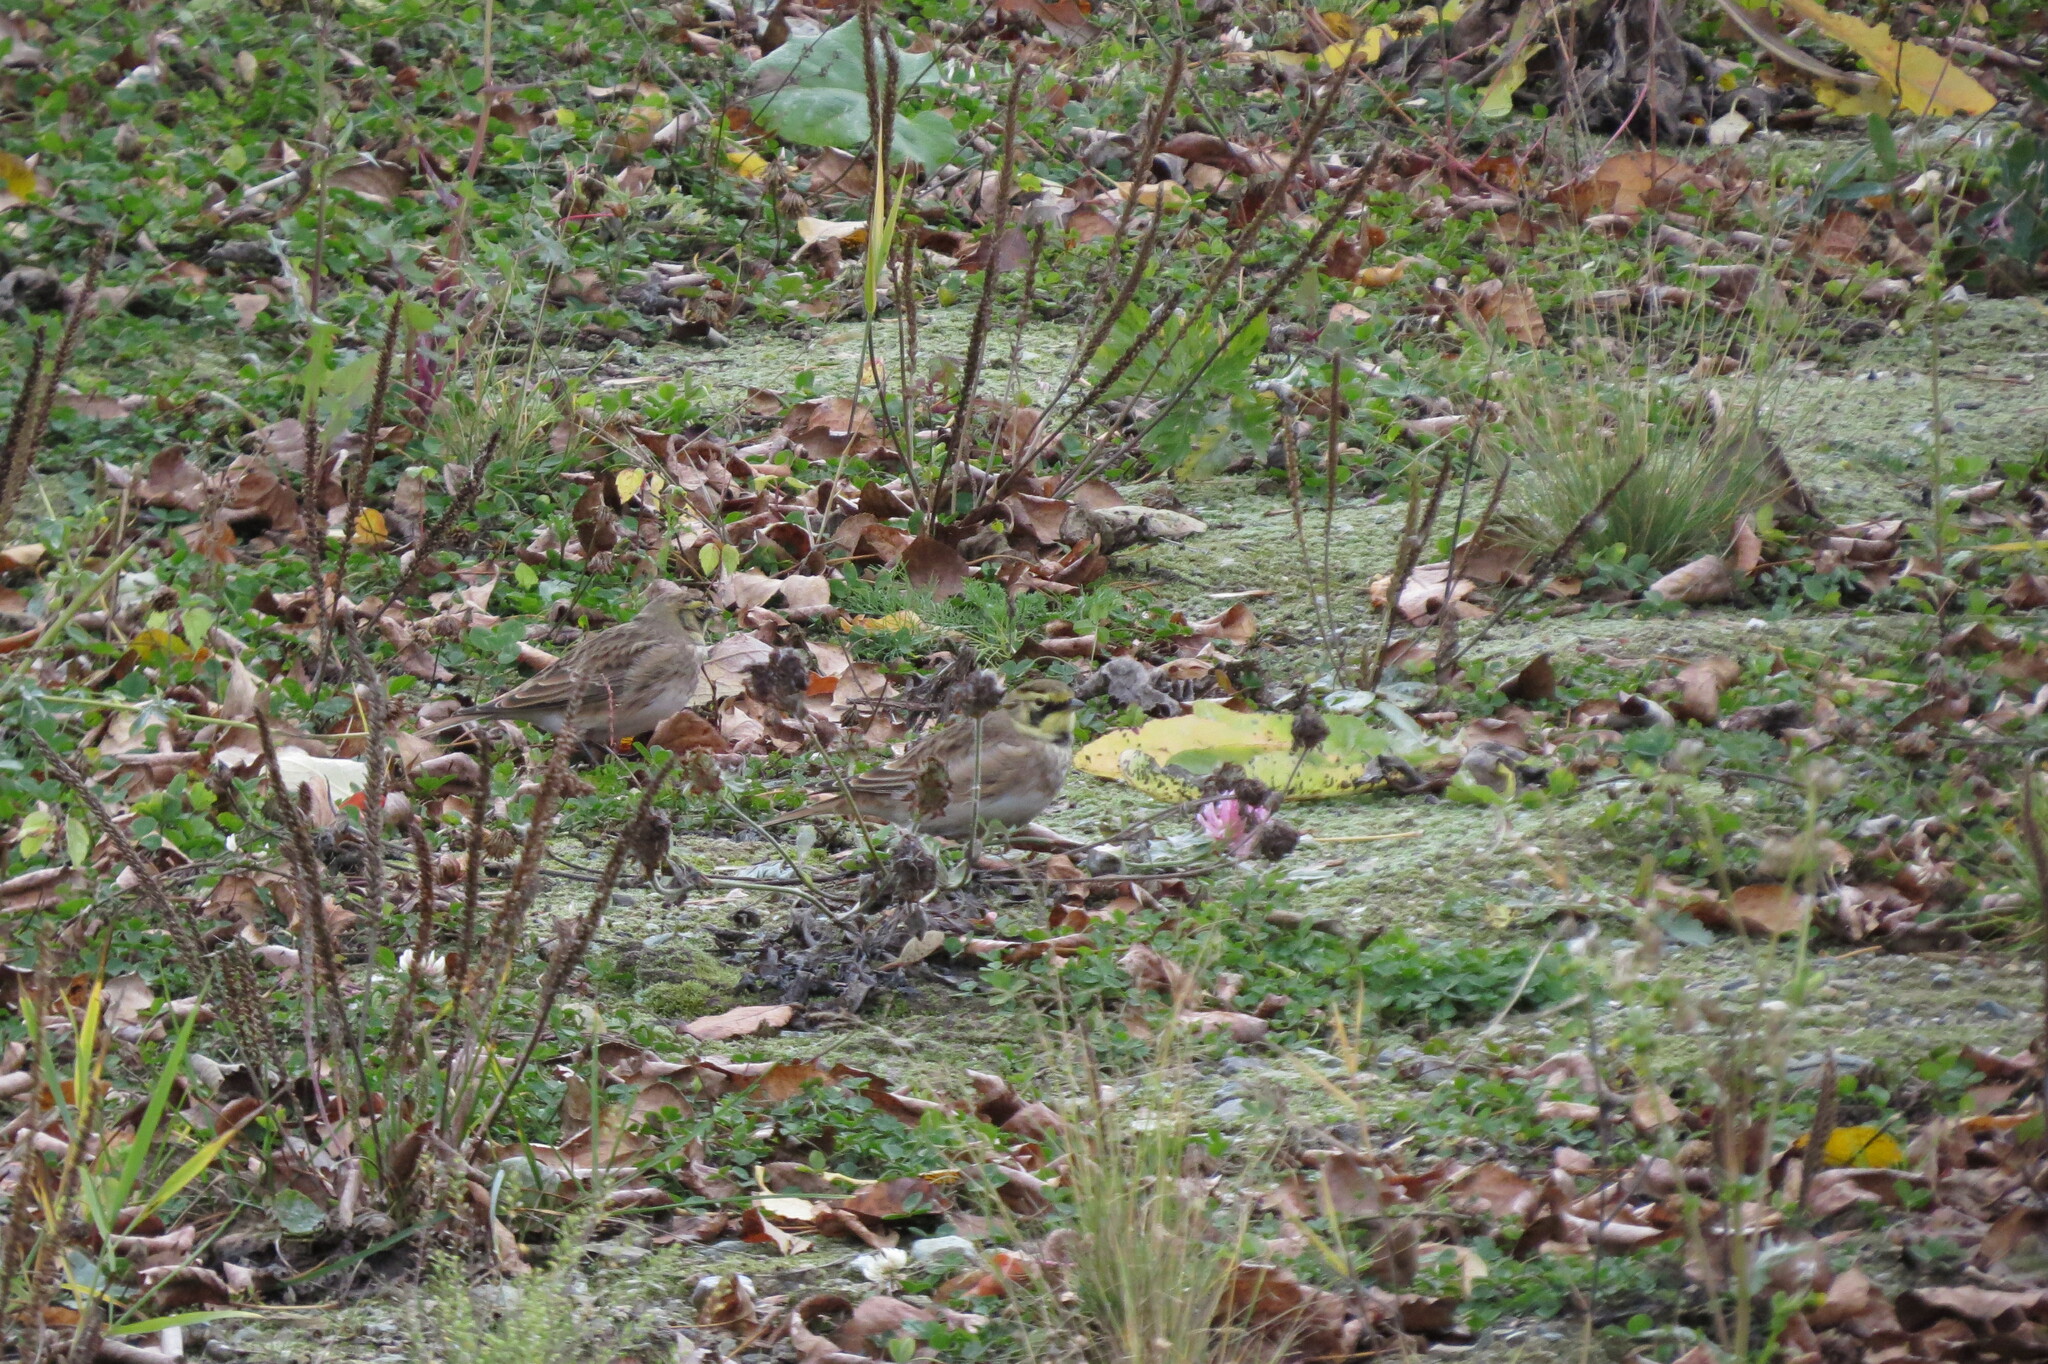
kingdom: Animalia
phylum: Chordata
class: Aves
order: Passeriformes
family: Alaudidae
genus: Eremophila
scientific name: Eremophila alpestris
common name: Horned lark
